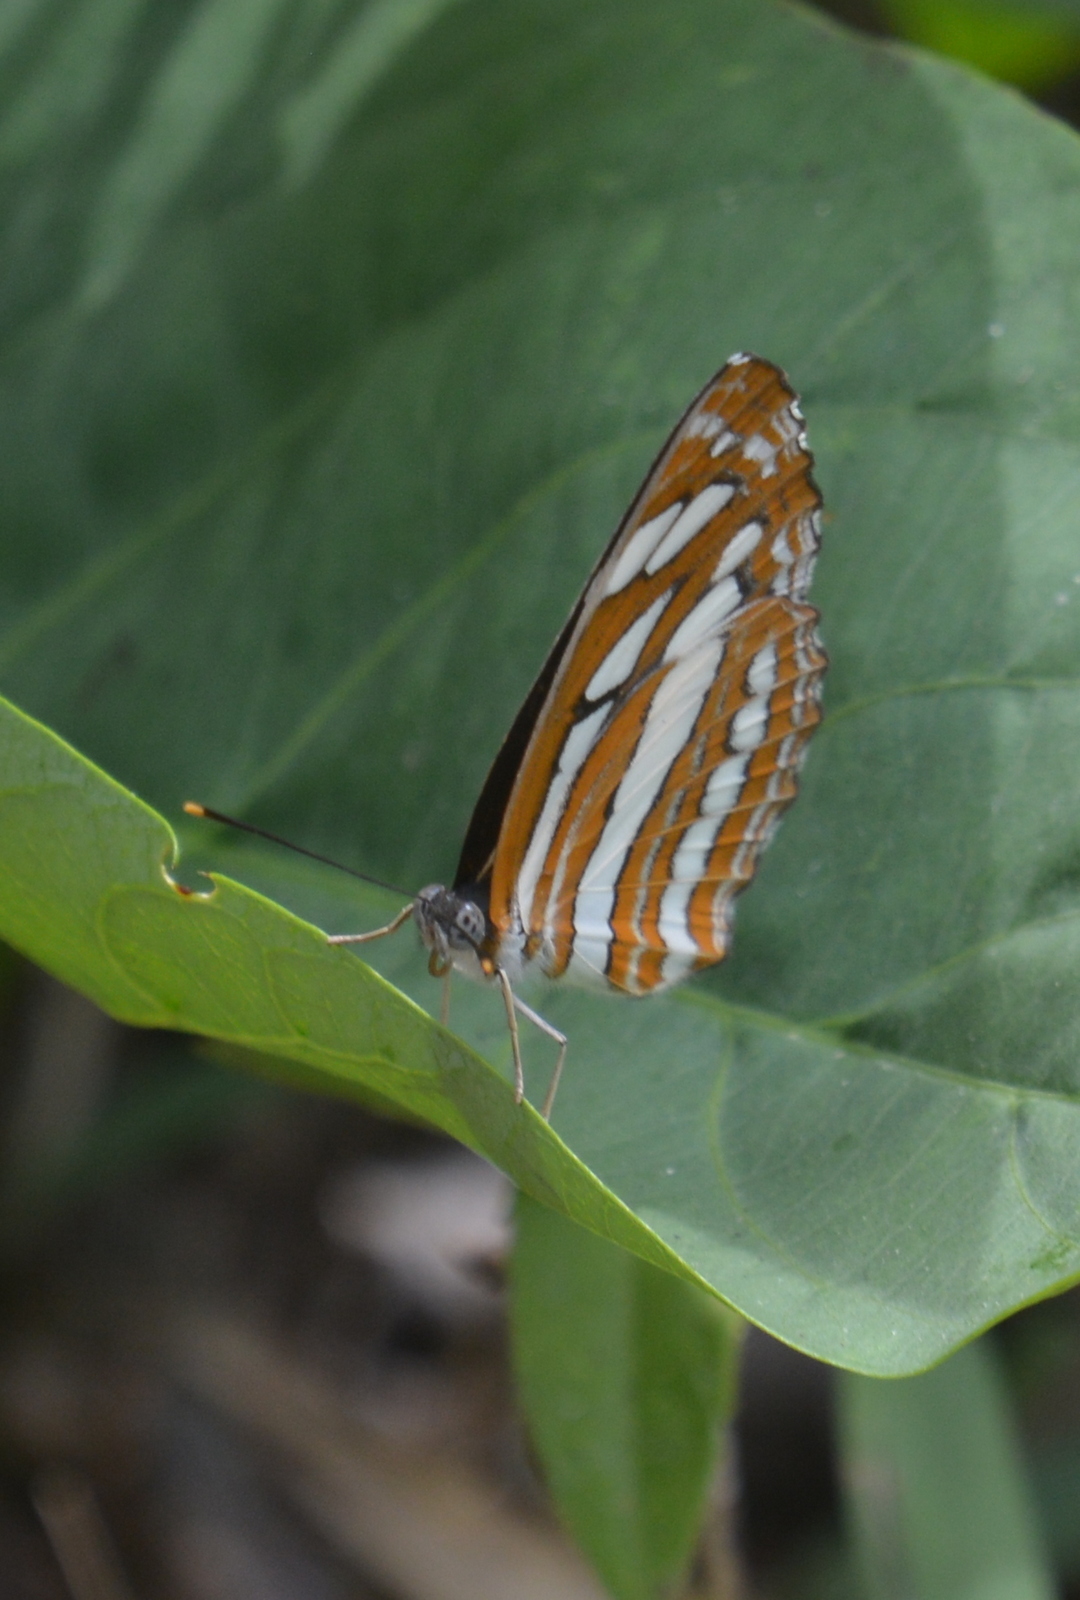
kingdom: Animalia
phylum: Arthropoda
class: Insecta
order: Lepidoptera
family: Nymphalidae
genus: Neptis
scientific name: Neptis hylas
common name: Common sailer
